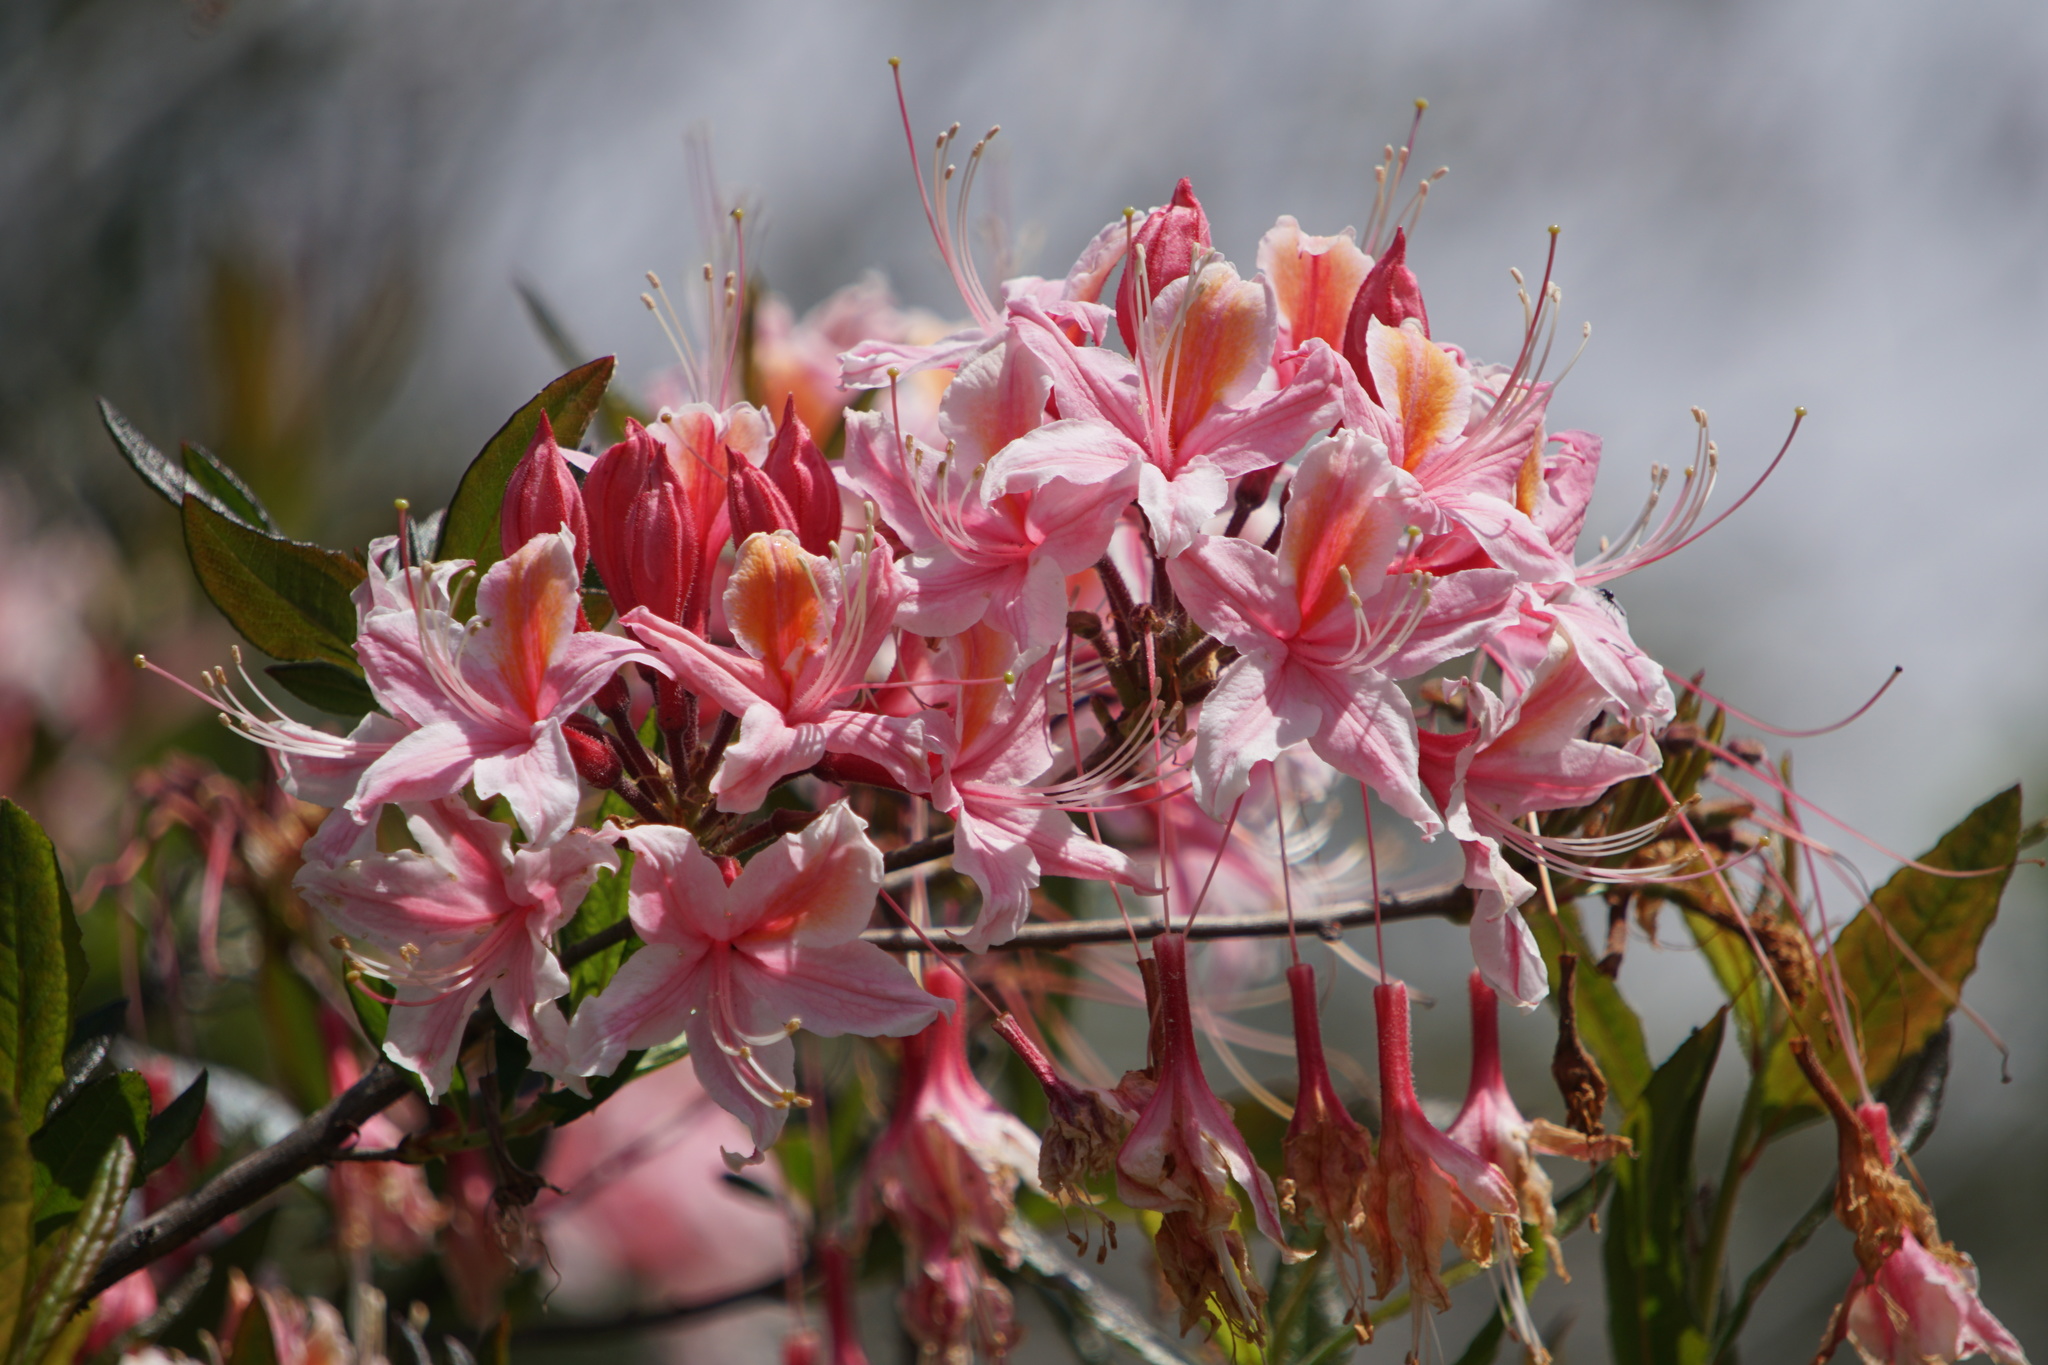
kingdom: Plantae
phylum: Tracheophyta
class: Magnoliopsida
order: Ericales
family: Ericaceae
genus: Rhododendron
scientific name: Rhododendron occidentale
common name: Western azalea
